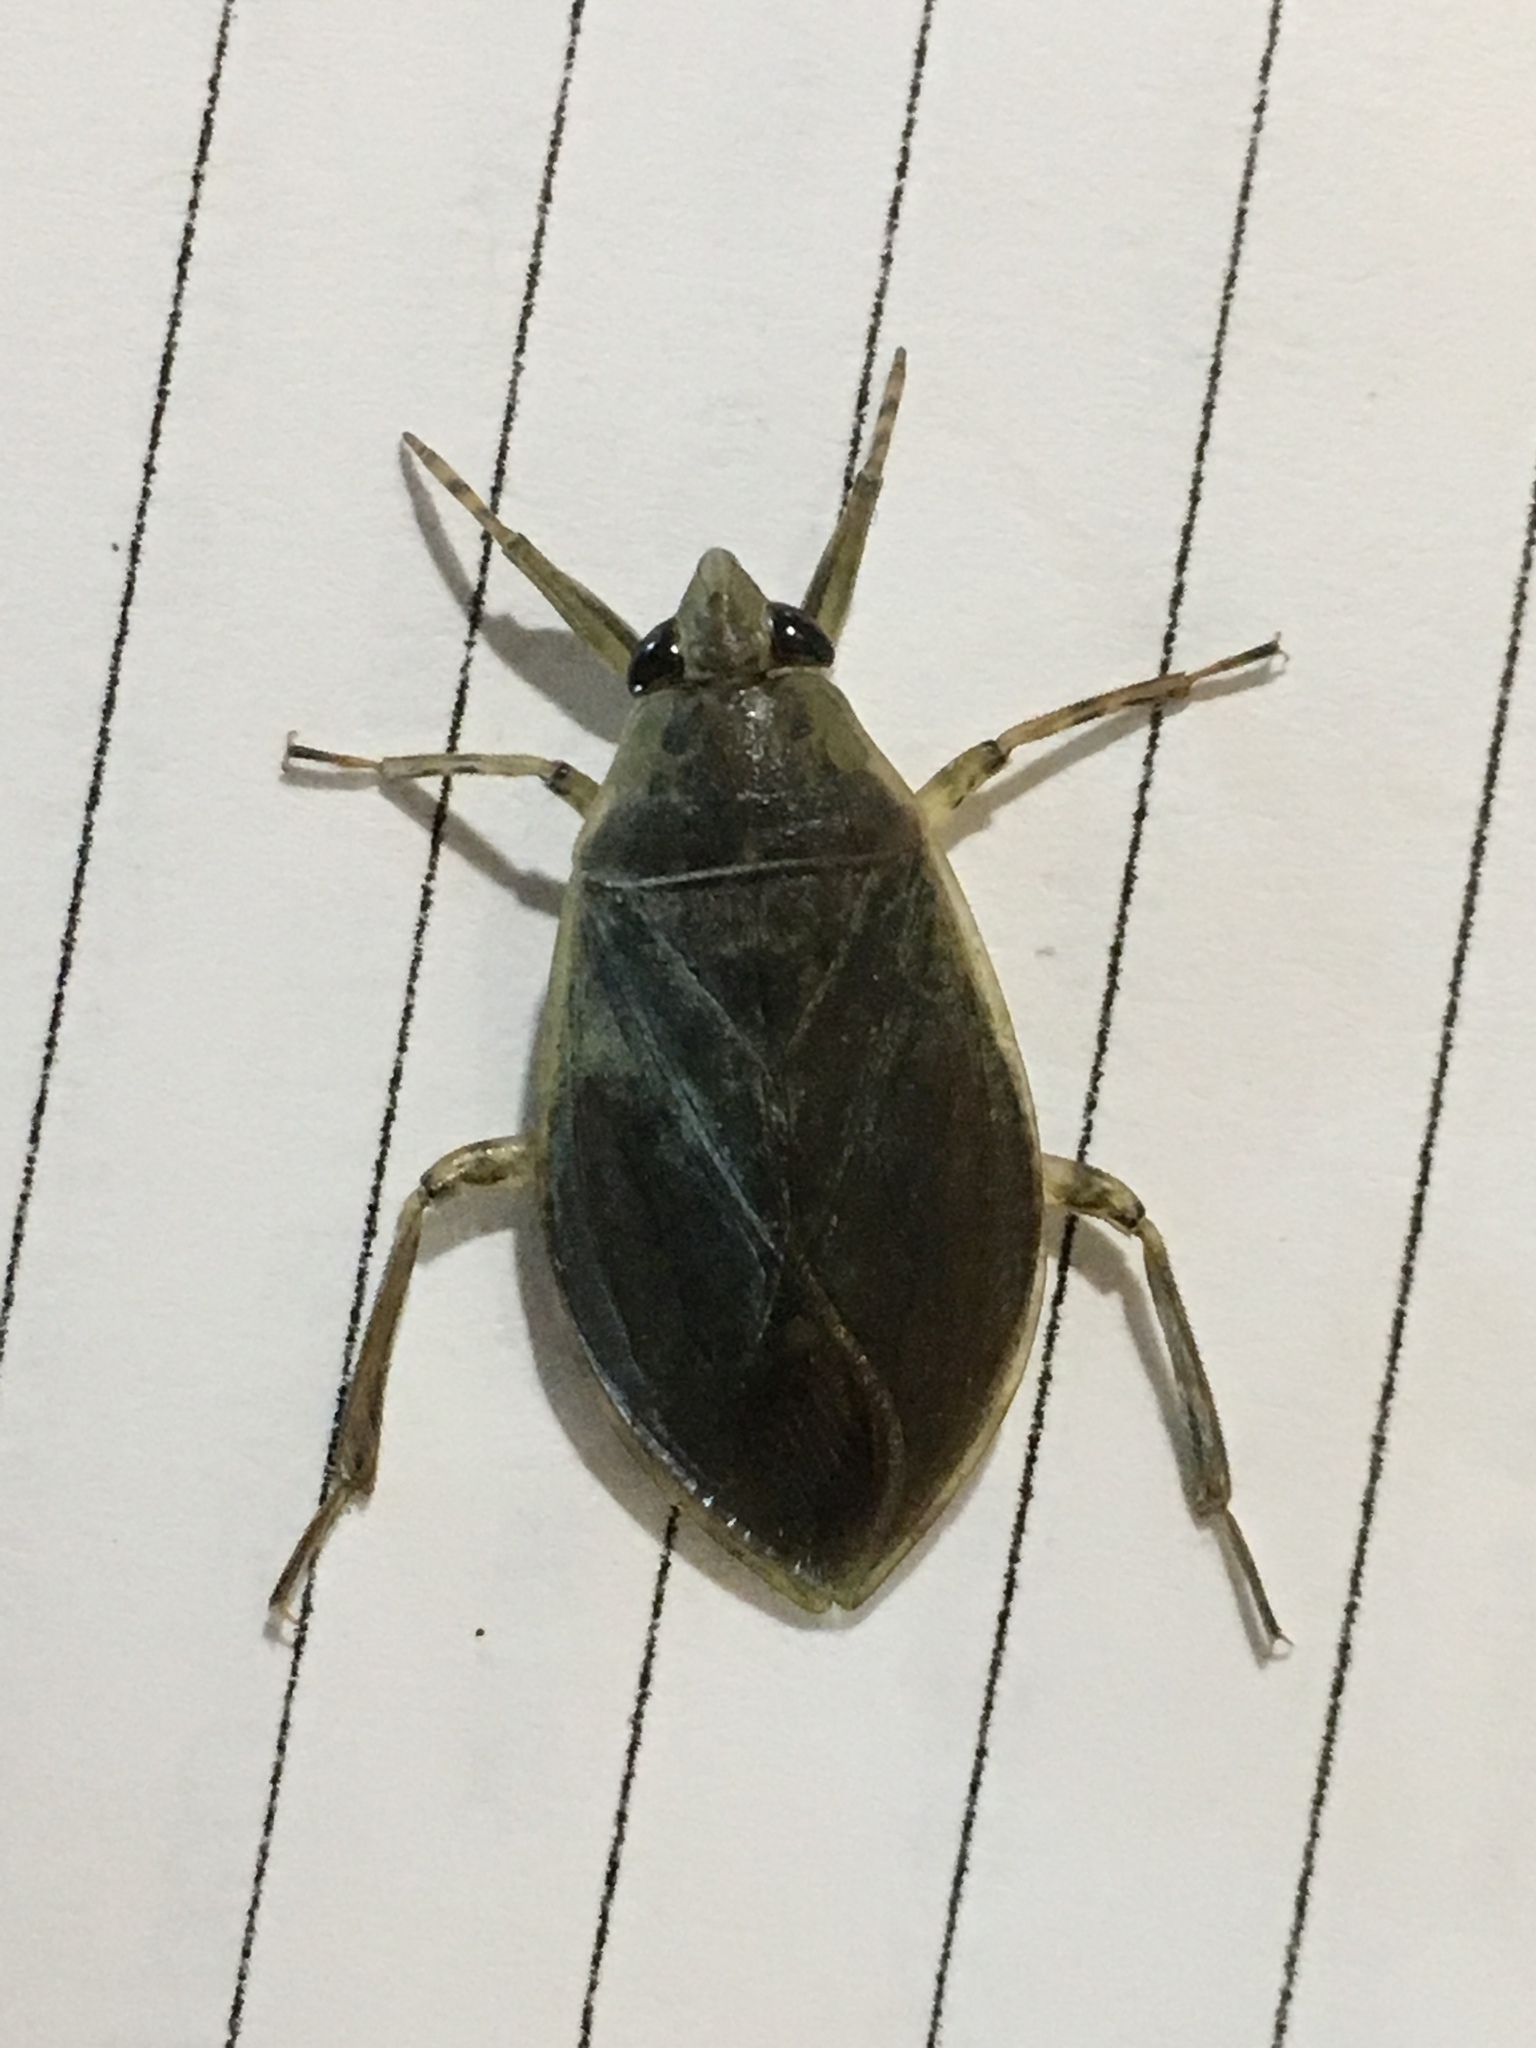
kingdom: Animalia
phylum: Arthropoda
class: Insecta
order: Hemiptera
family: Belostomatidae
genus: Belostoma
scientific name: Belostoma
